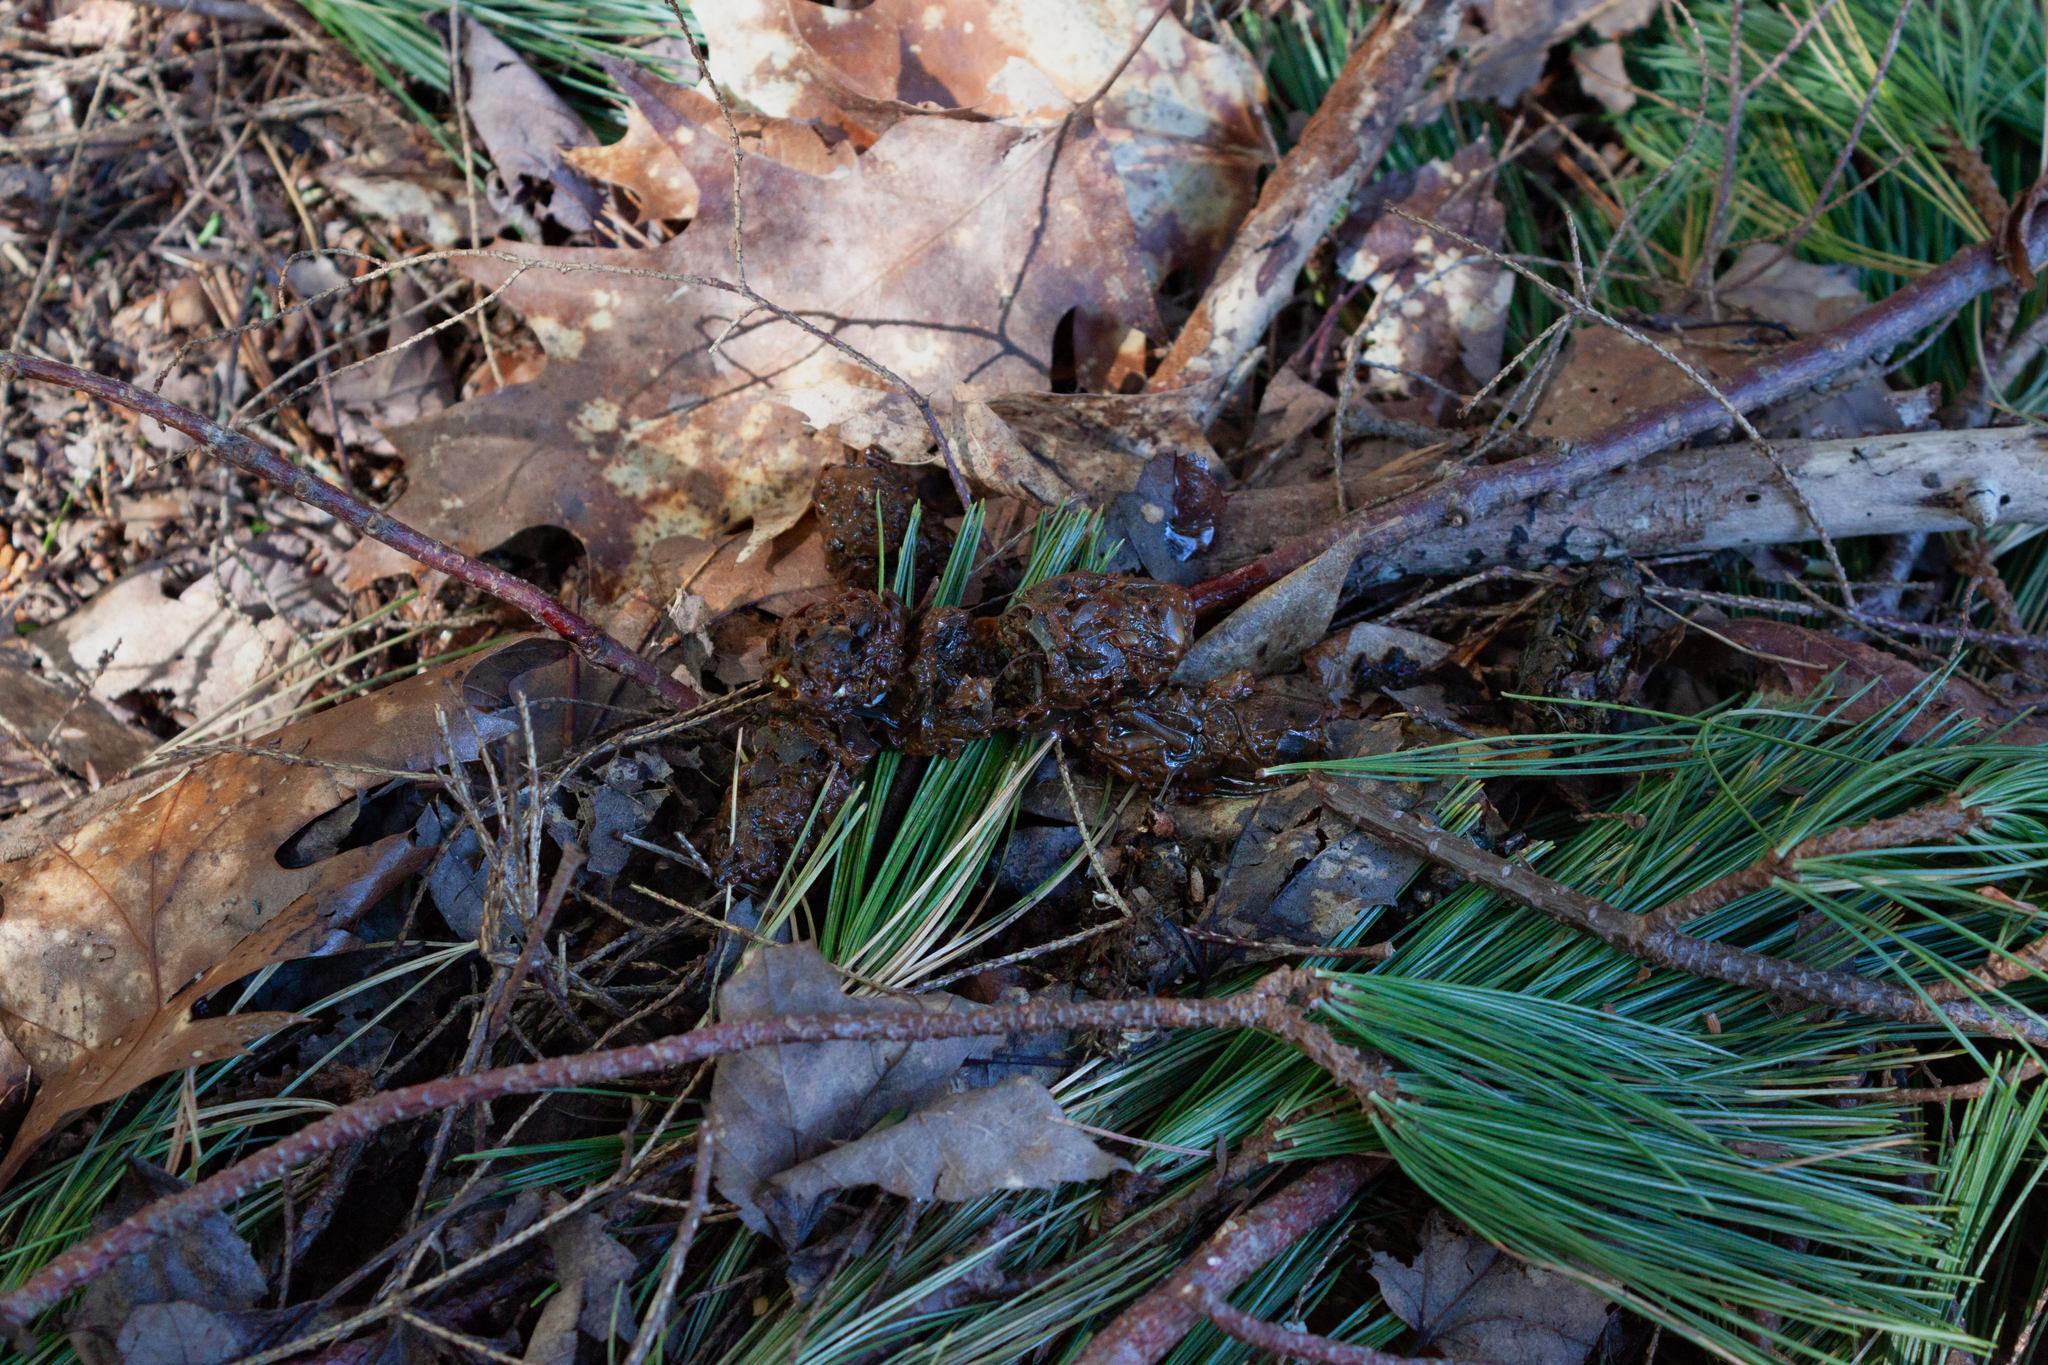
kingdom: Animalia
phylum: Chordata
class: Mammalia
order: Carnivora
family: Mustelidae
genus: Lontra
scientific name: Lontra canadensis
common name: North american river otter
